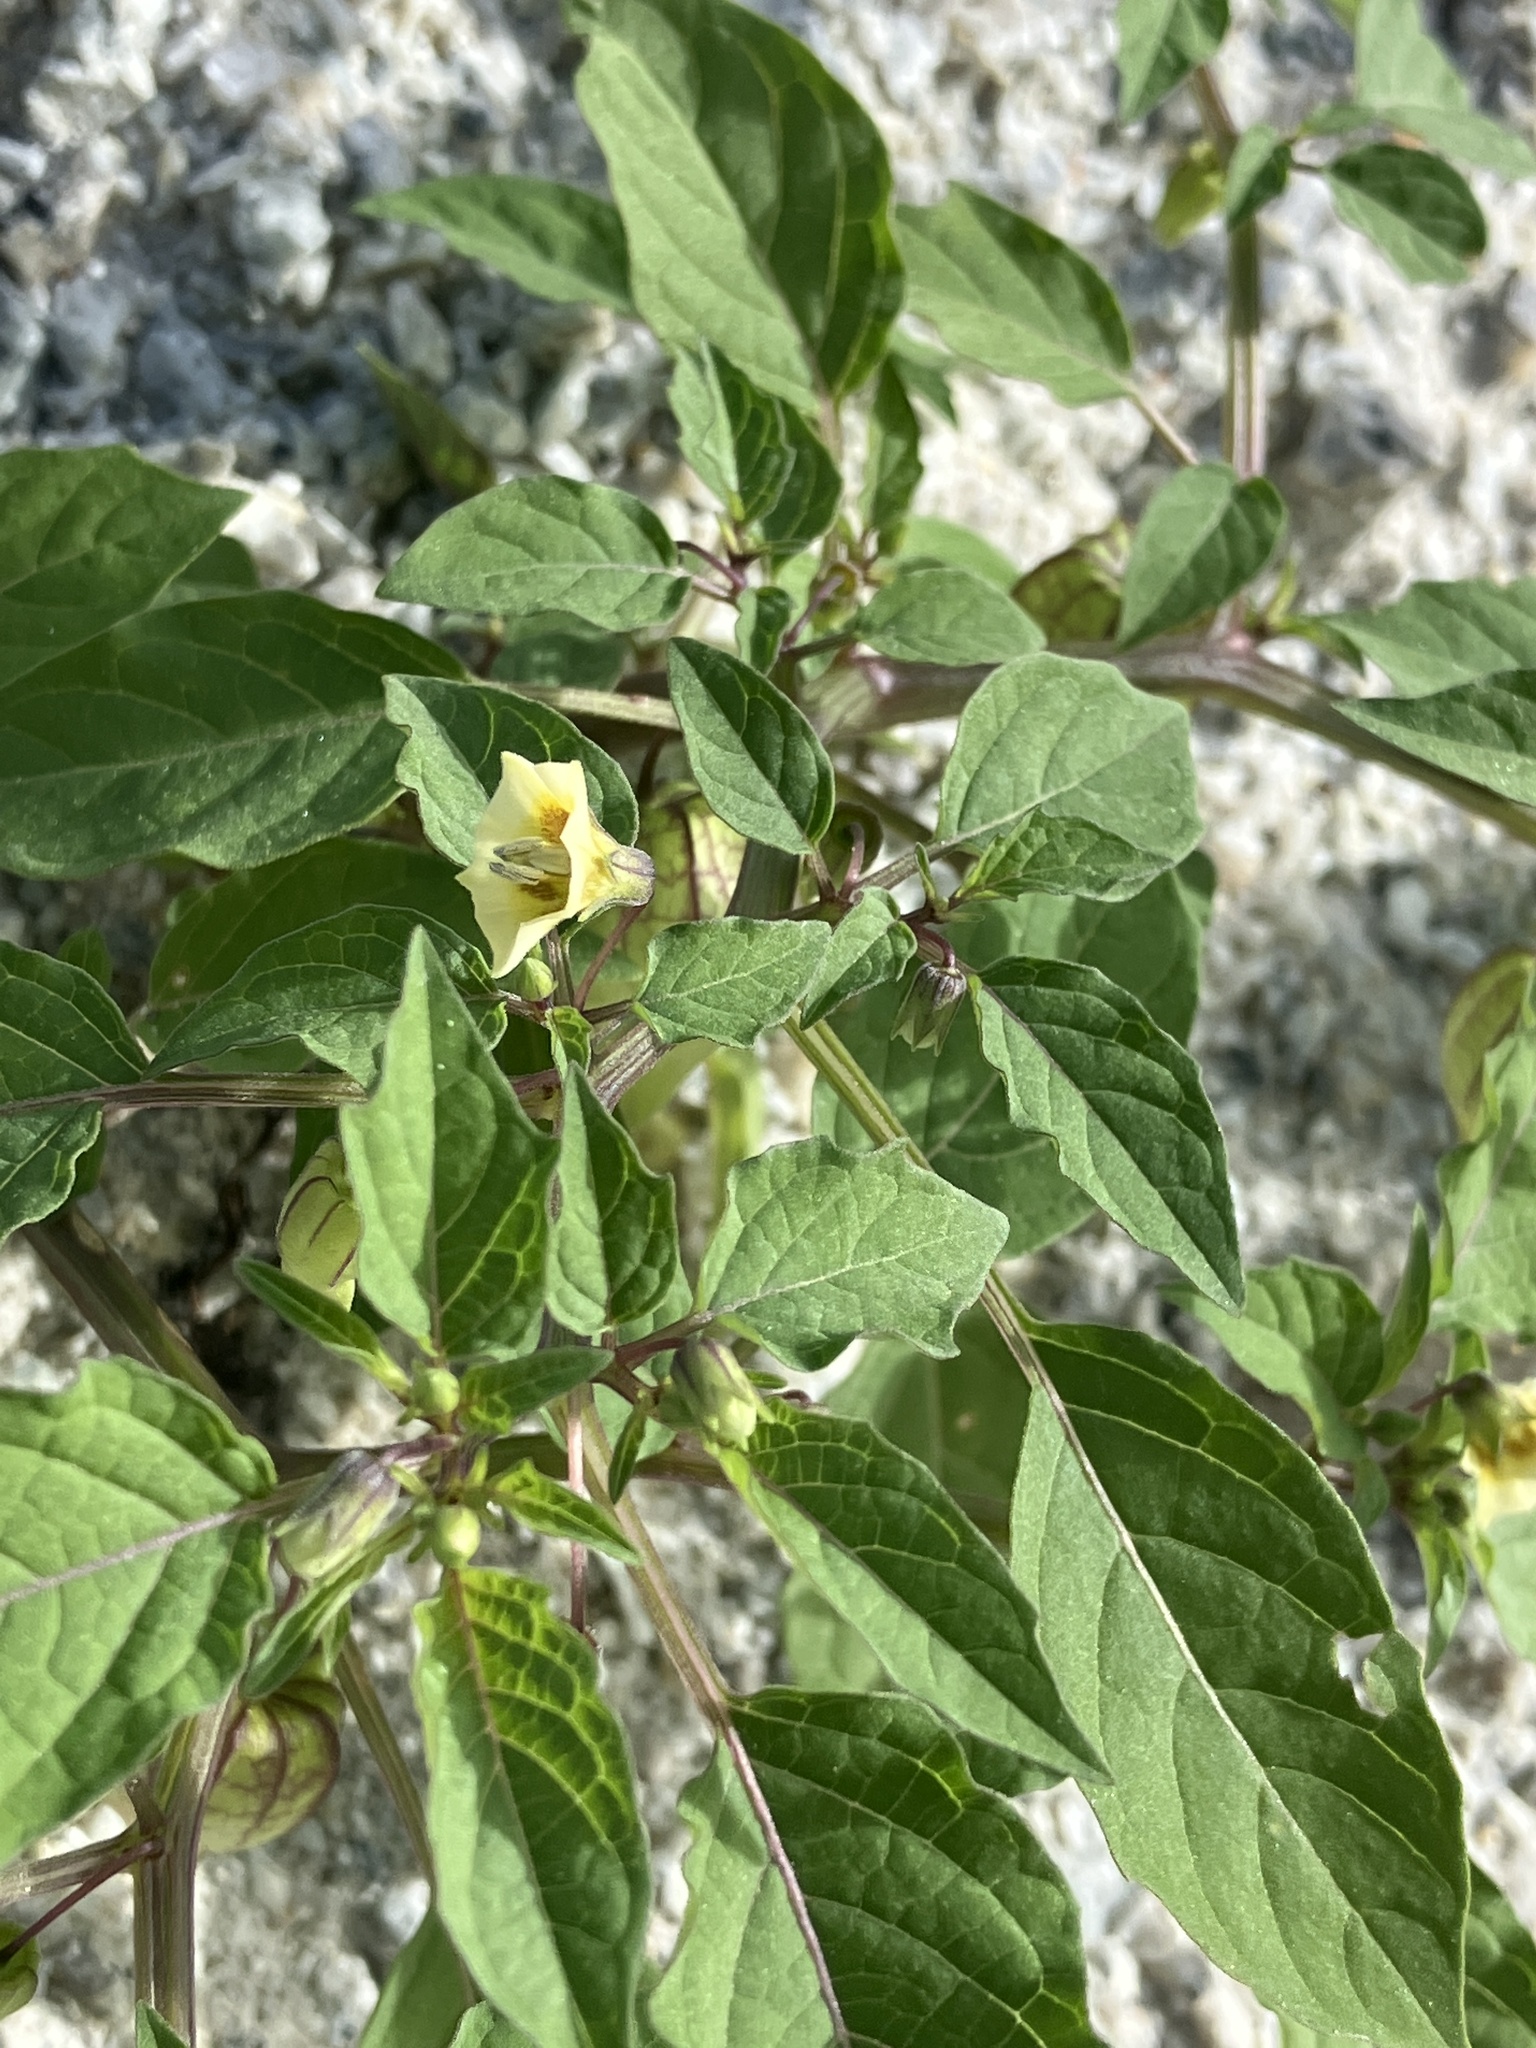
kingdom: Plantae
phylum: Tracheophyta
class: Magnoliopsida
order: Solanales
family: Solanaceae
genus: Physalis
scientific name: Physalis angulata
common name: Angular winter-cherry
